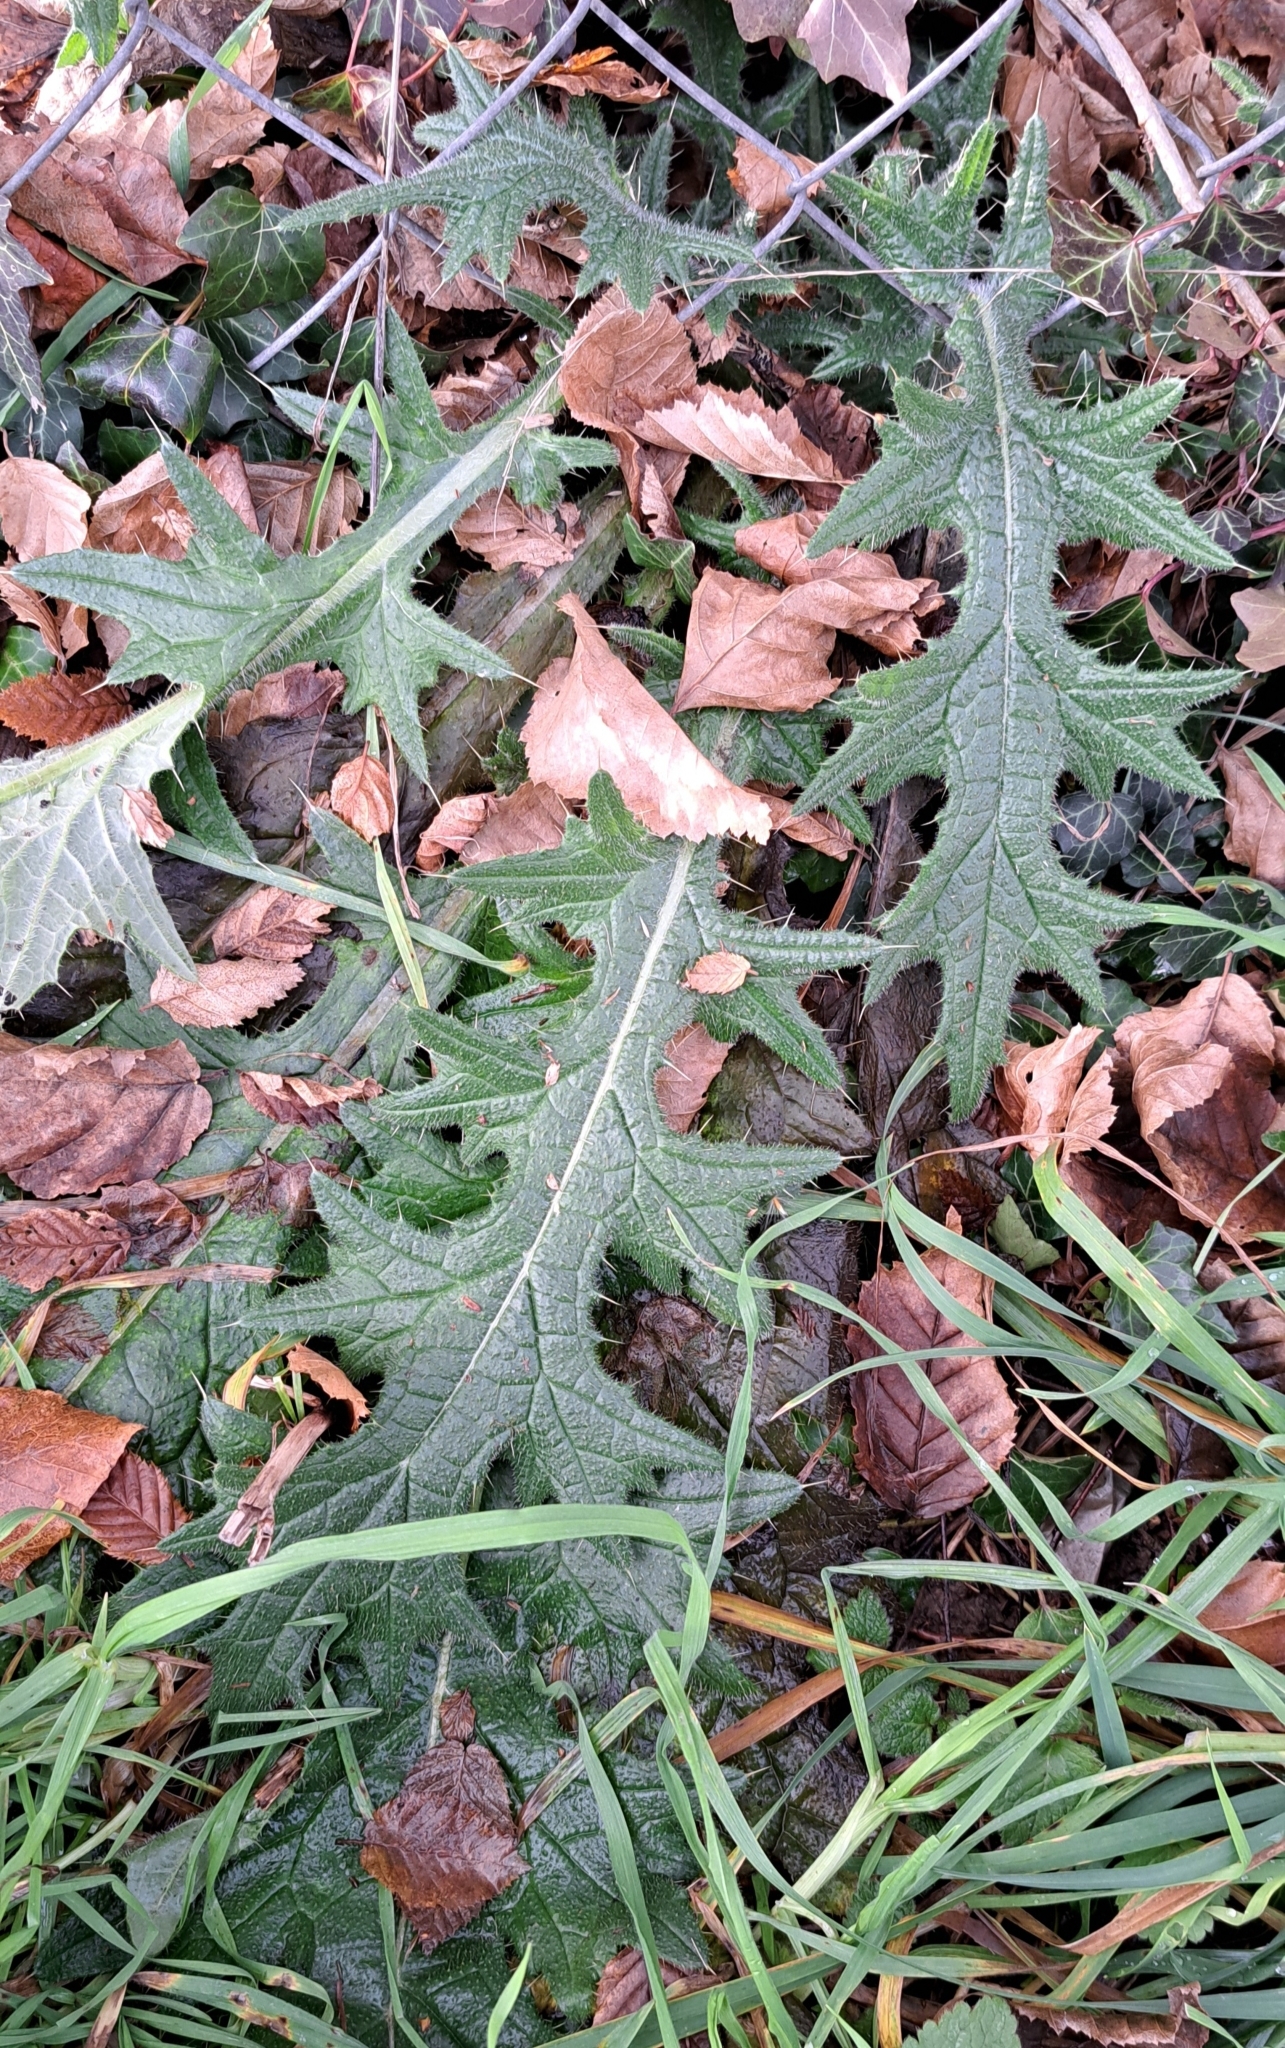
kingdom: Plantae
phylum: Tracheophyta
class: Magnoliopsida
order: Asterales
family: Asteraceae
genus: Cirsium
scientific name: Cirsium vulgare
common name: Bull thistle
